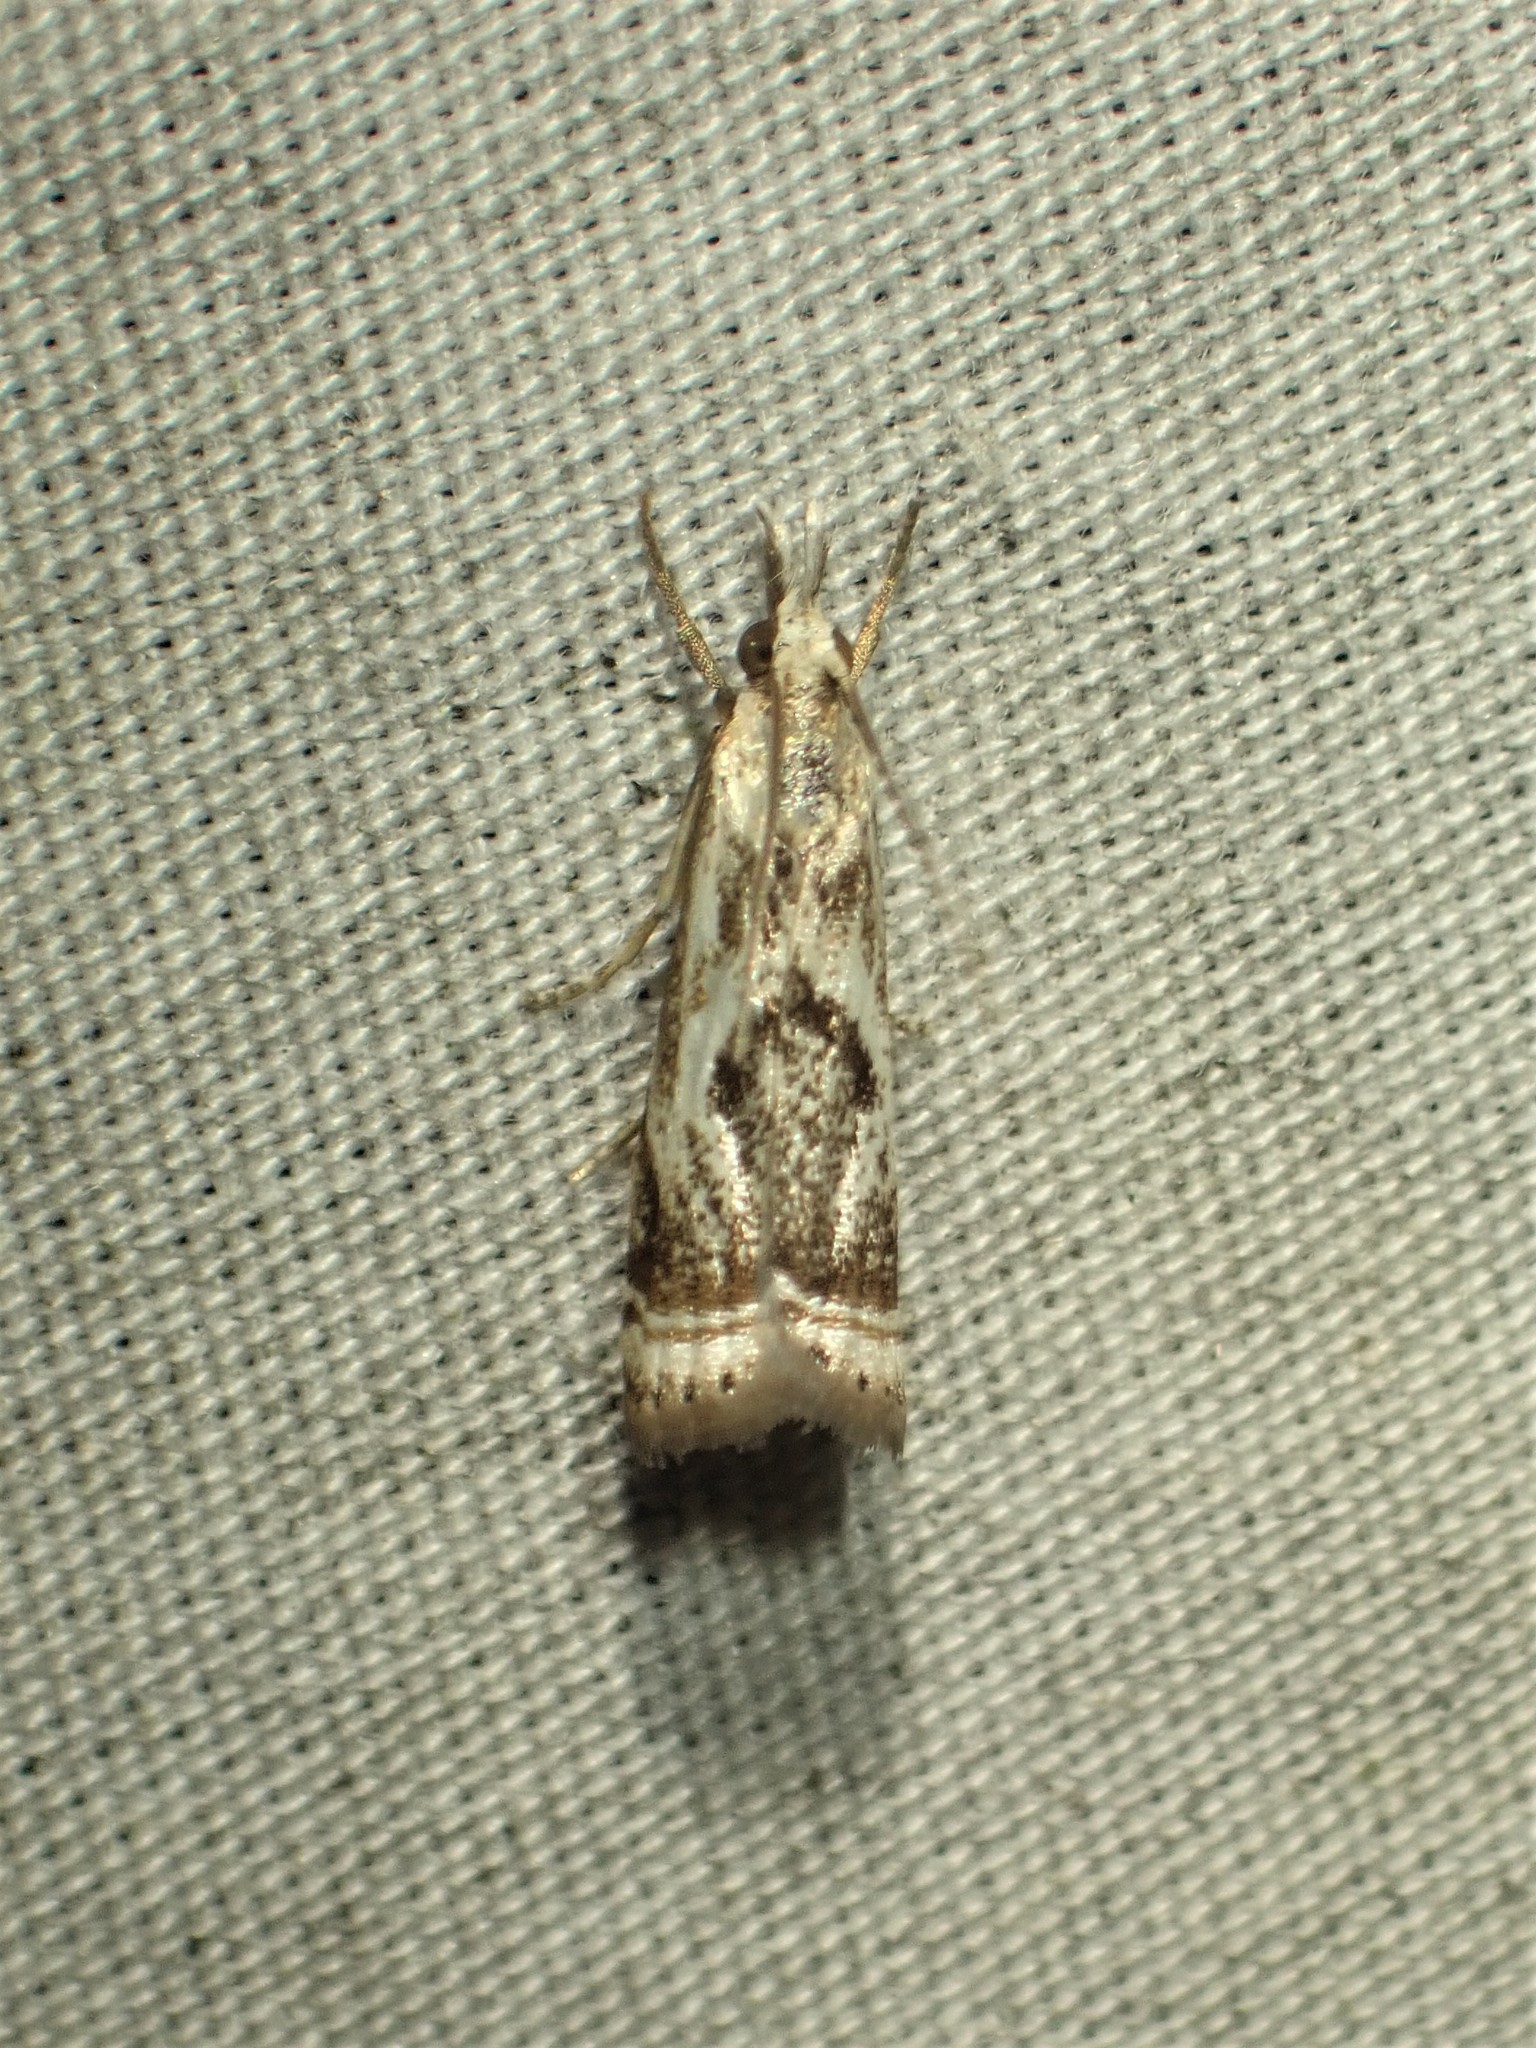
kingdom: Animalia
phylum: Arthropoda
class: Insecta
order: Lepidoptera
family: Crambidae
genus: Microcrambus
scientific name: Microcrambus elegans
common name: Elegant grass-veneer
